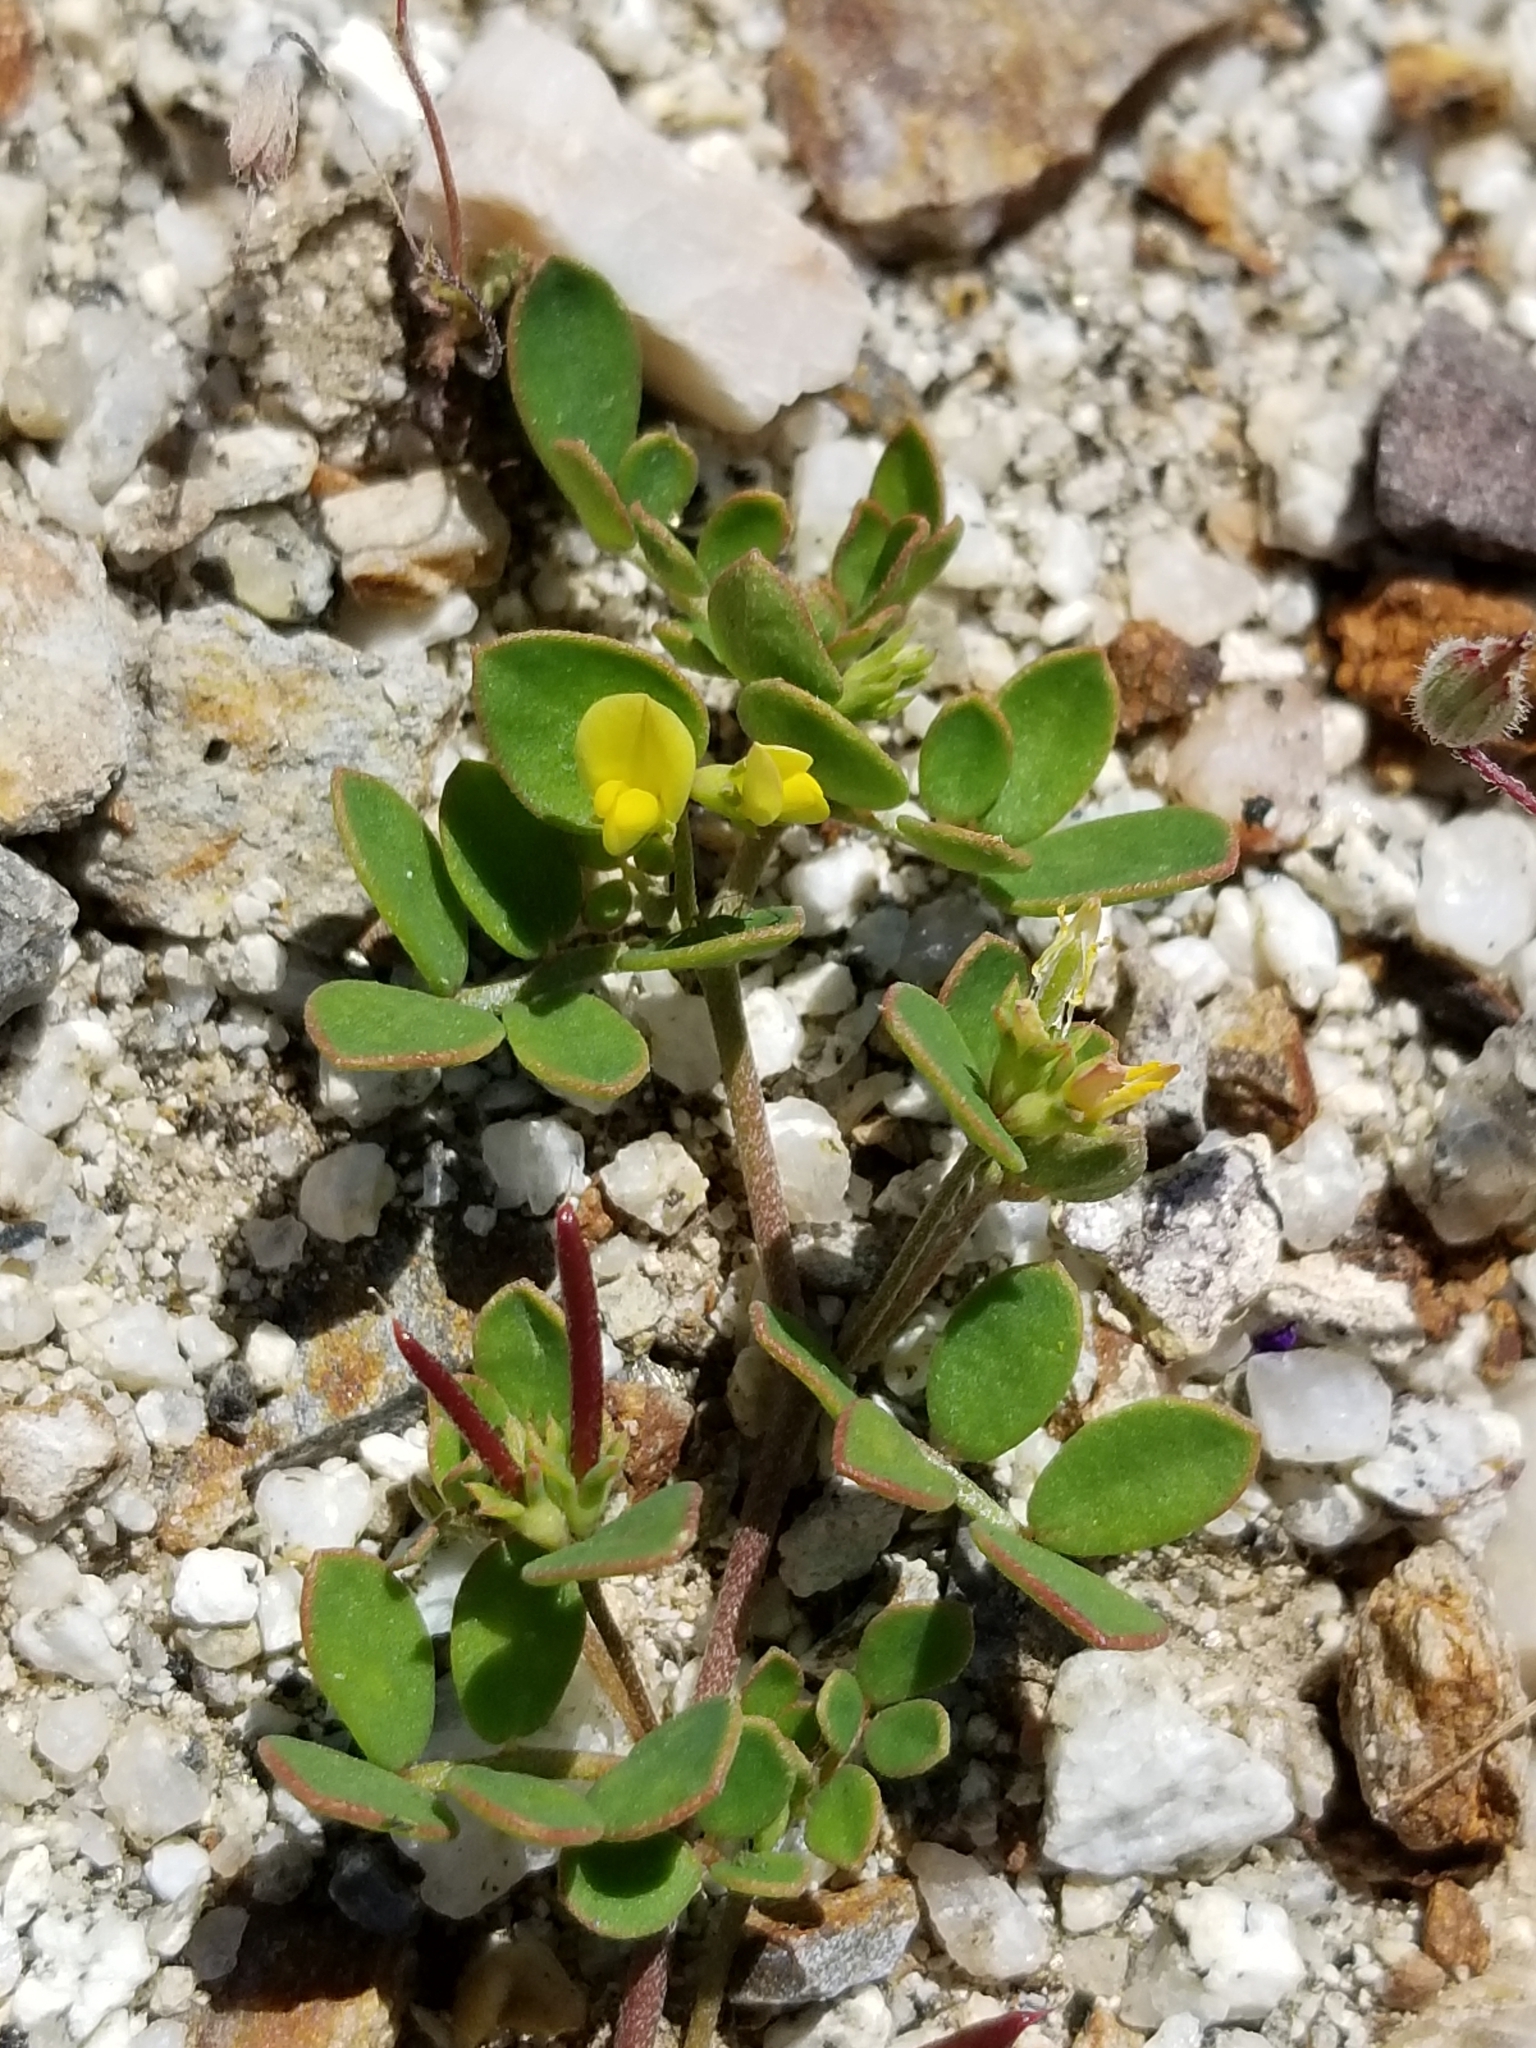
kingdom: Plantae
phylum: Tracheophyta
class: Magnoliopsida
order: Fabales
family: Fabaceae
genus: Acmispon
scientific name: Acmispon maritimus
